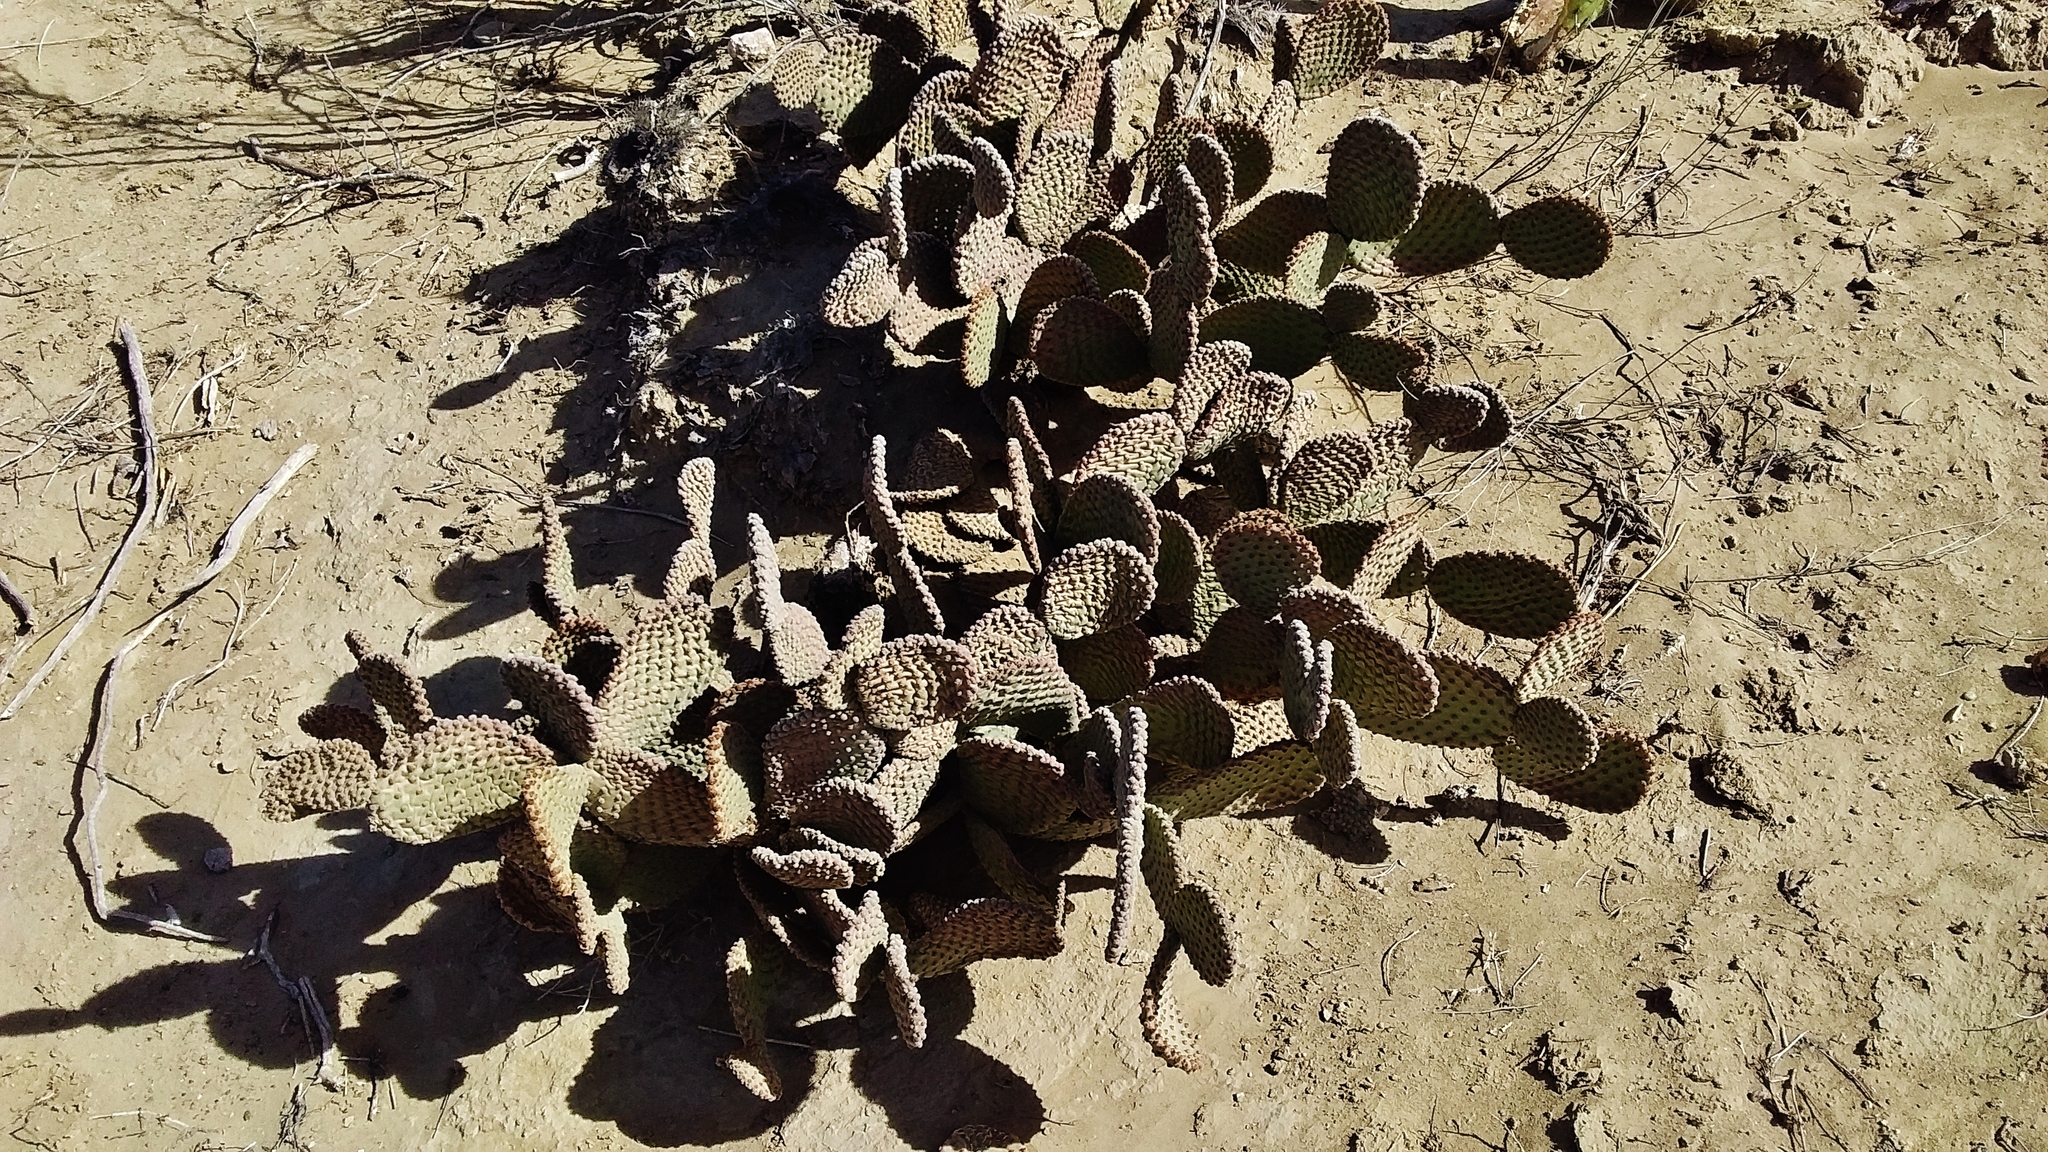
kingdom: Plantae
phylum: Tracheophyta
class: Magnoliopsida
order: Caryophyllales
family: Cactaceae
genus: Opuntia
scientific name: Opuntia microdasys
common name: Angel's-wings
